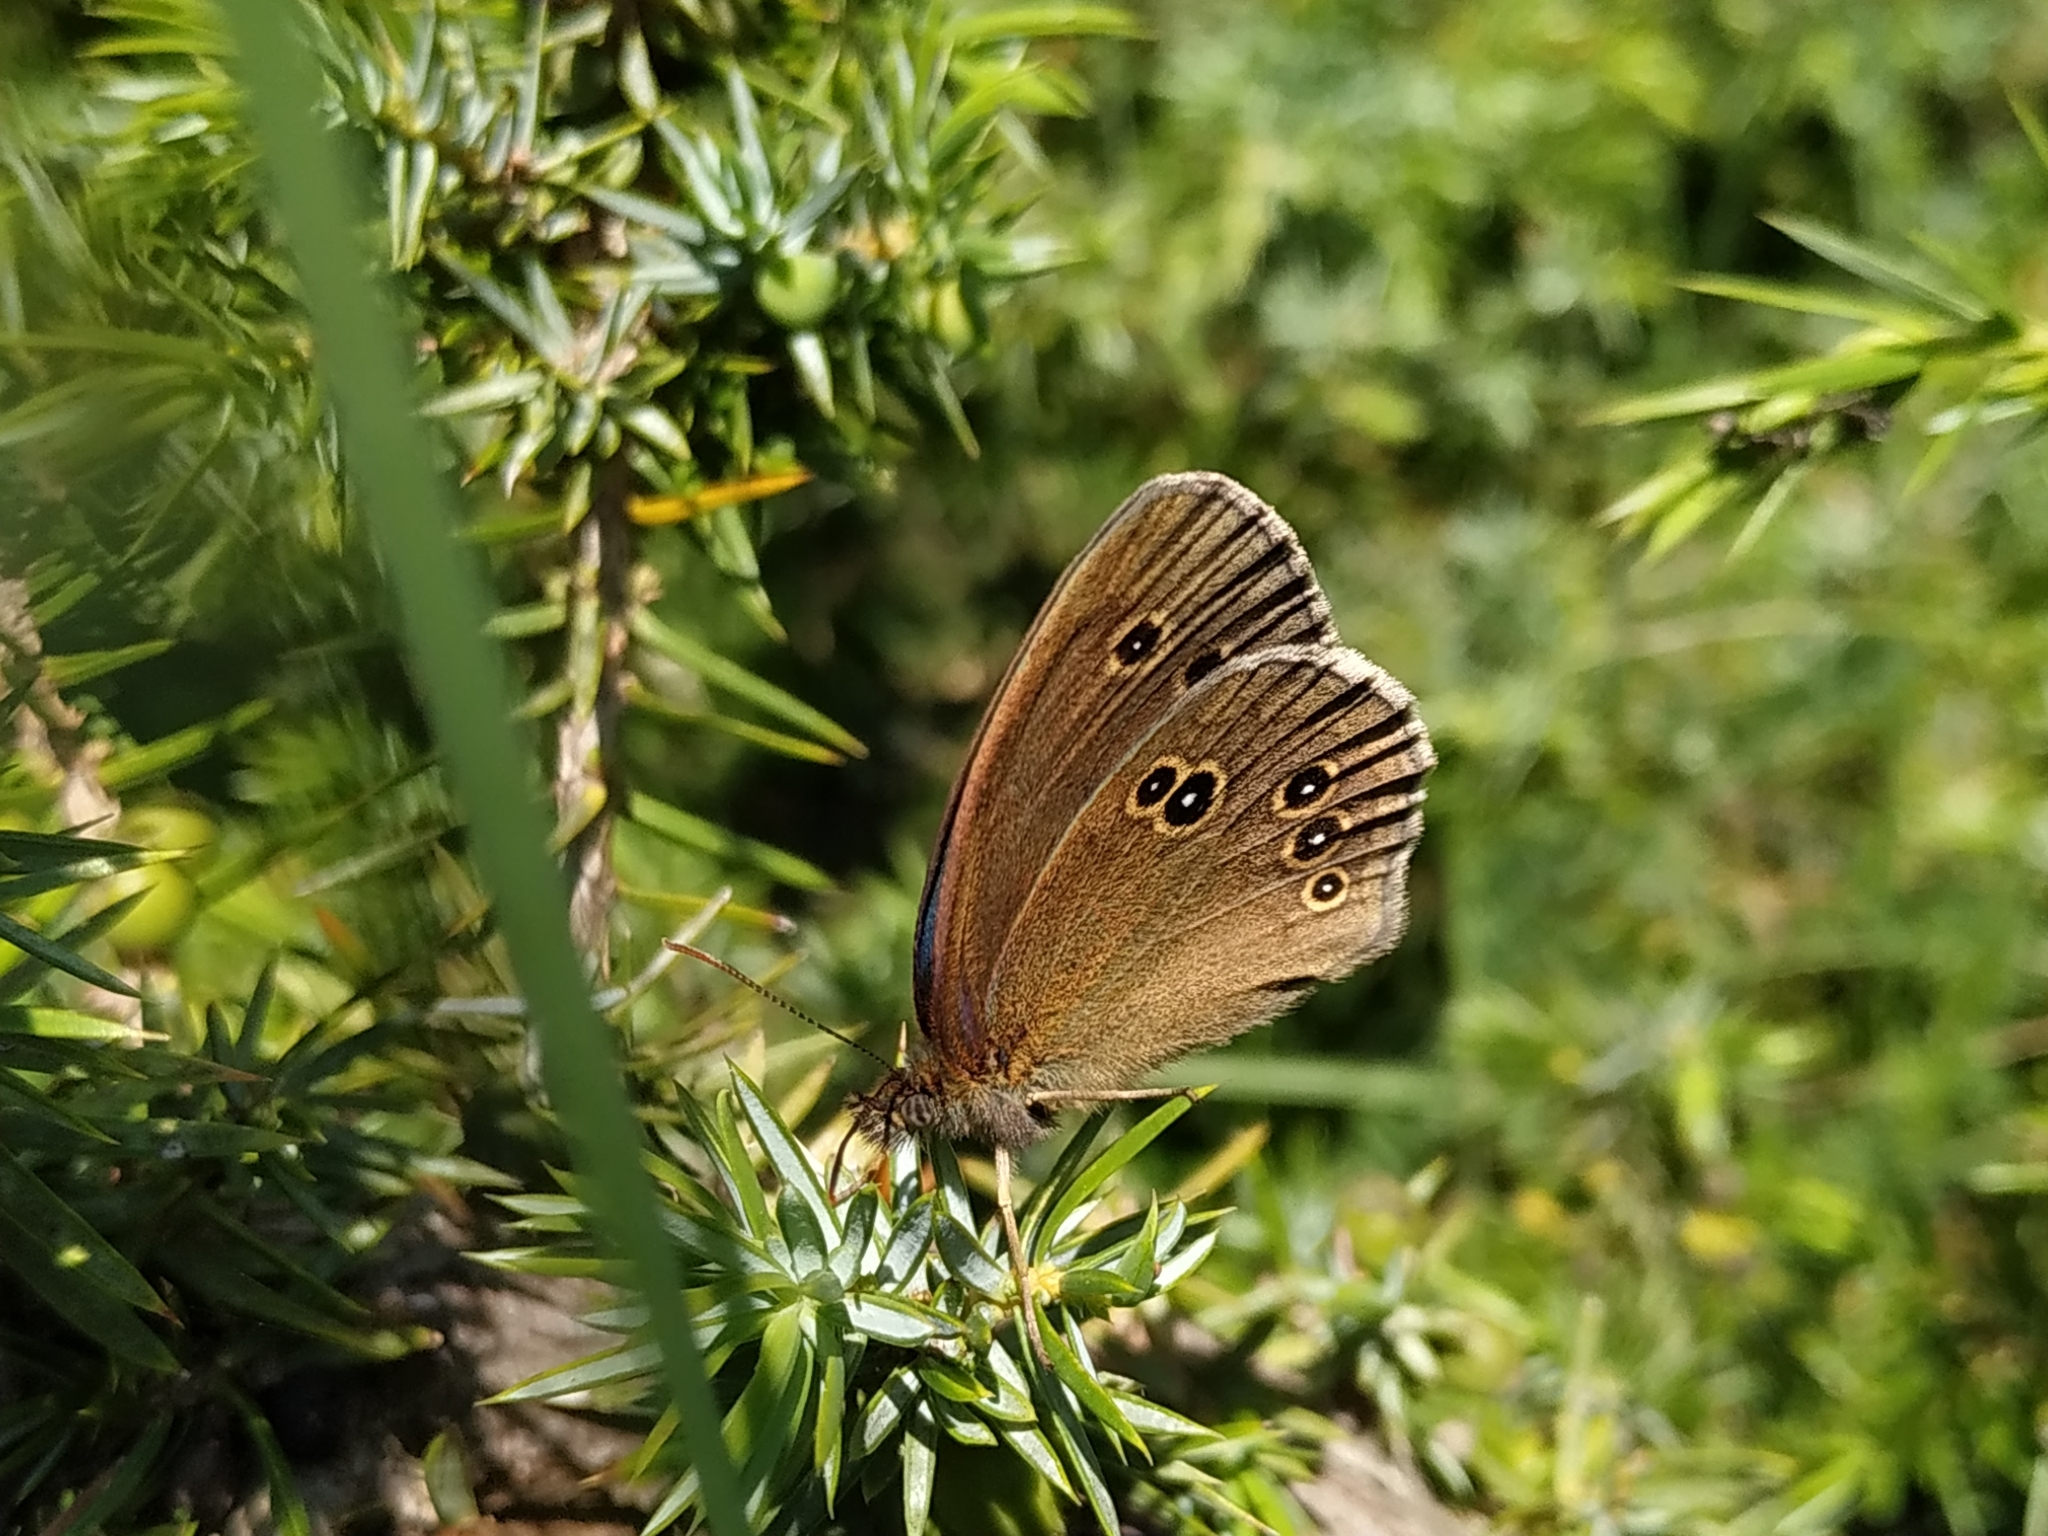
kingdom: Animalia
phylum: Arthropoda
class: Insecta
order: Lepidoptera
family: Nymphalidae
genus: Aphantopus
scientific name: Aphantopus hyperantus
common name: Ringlet
